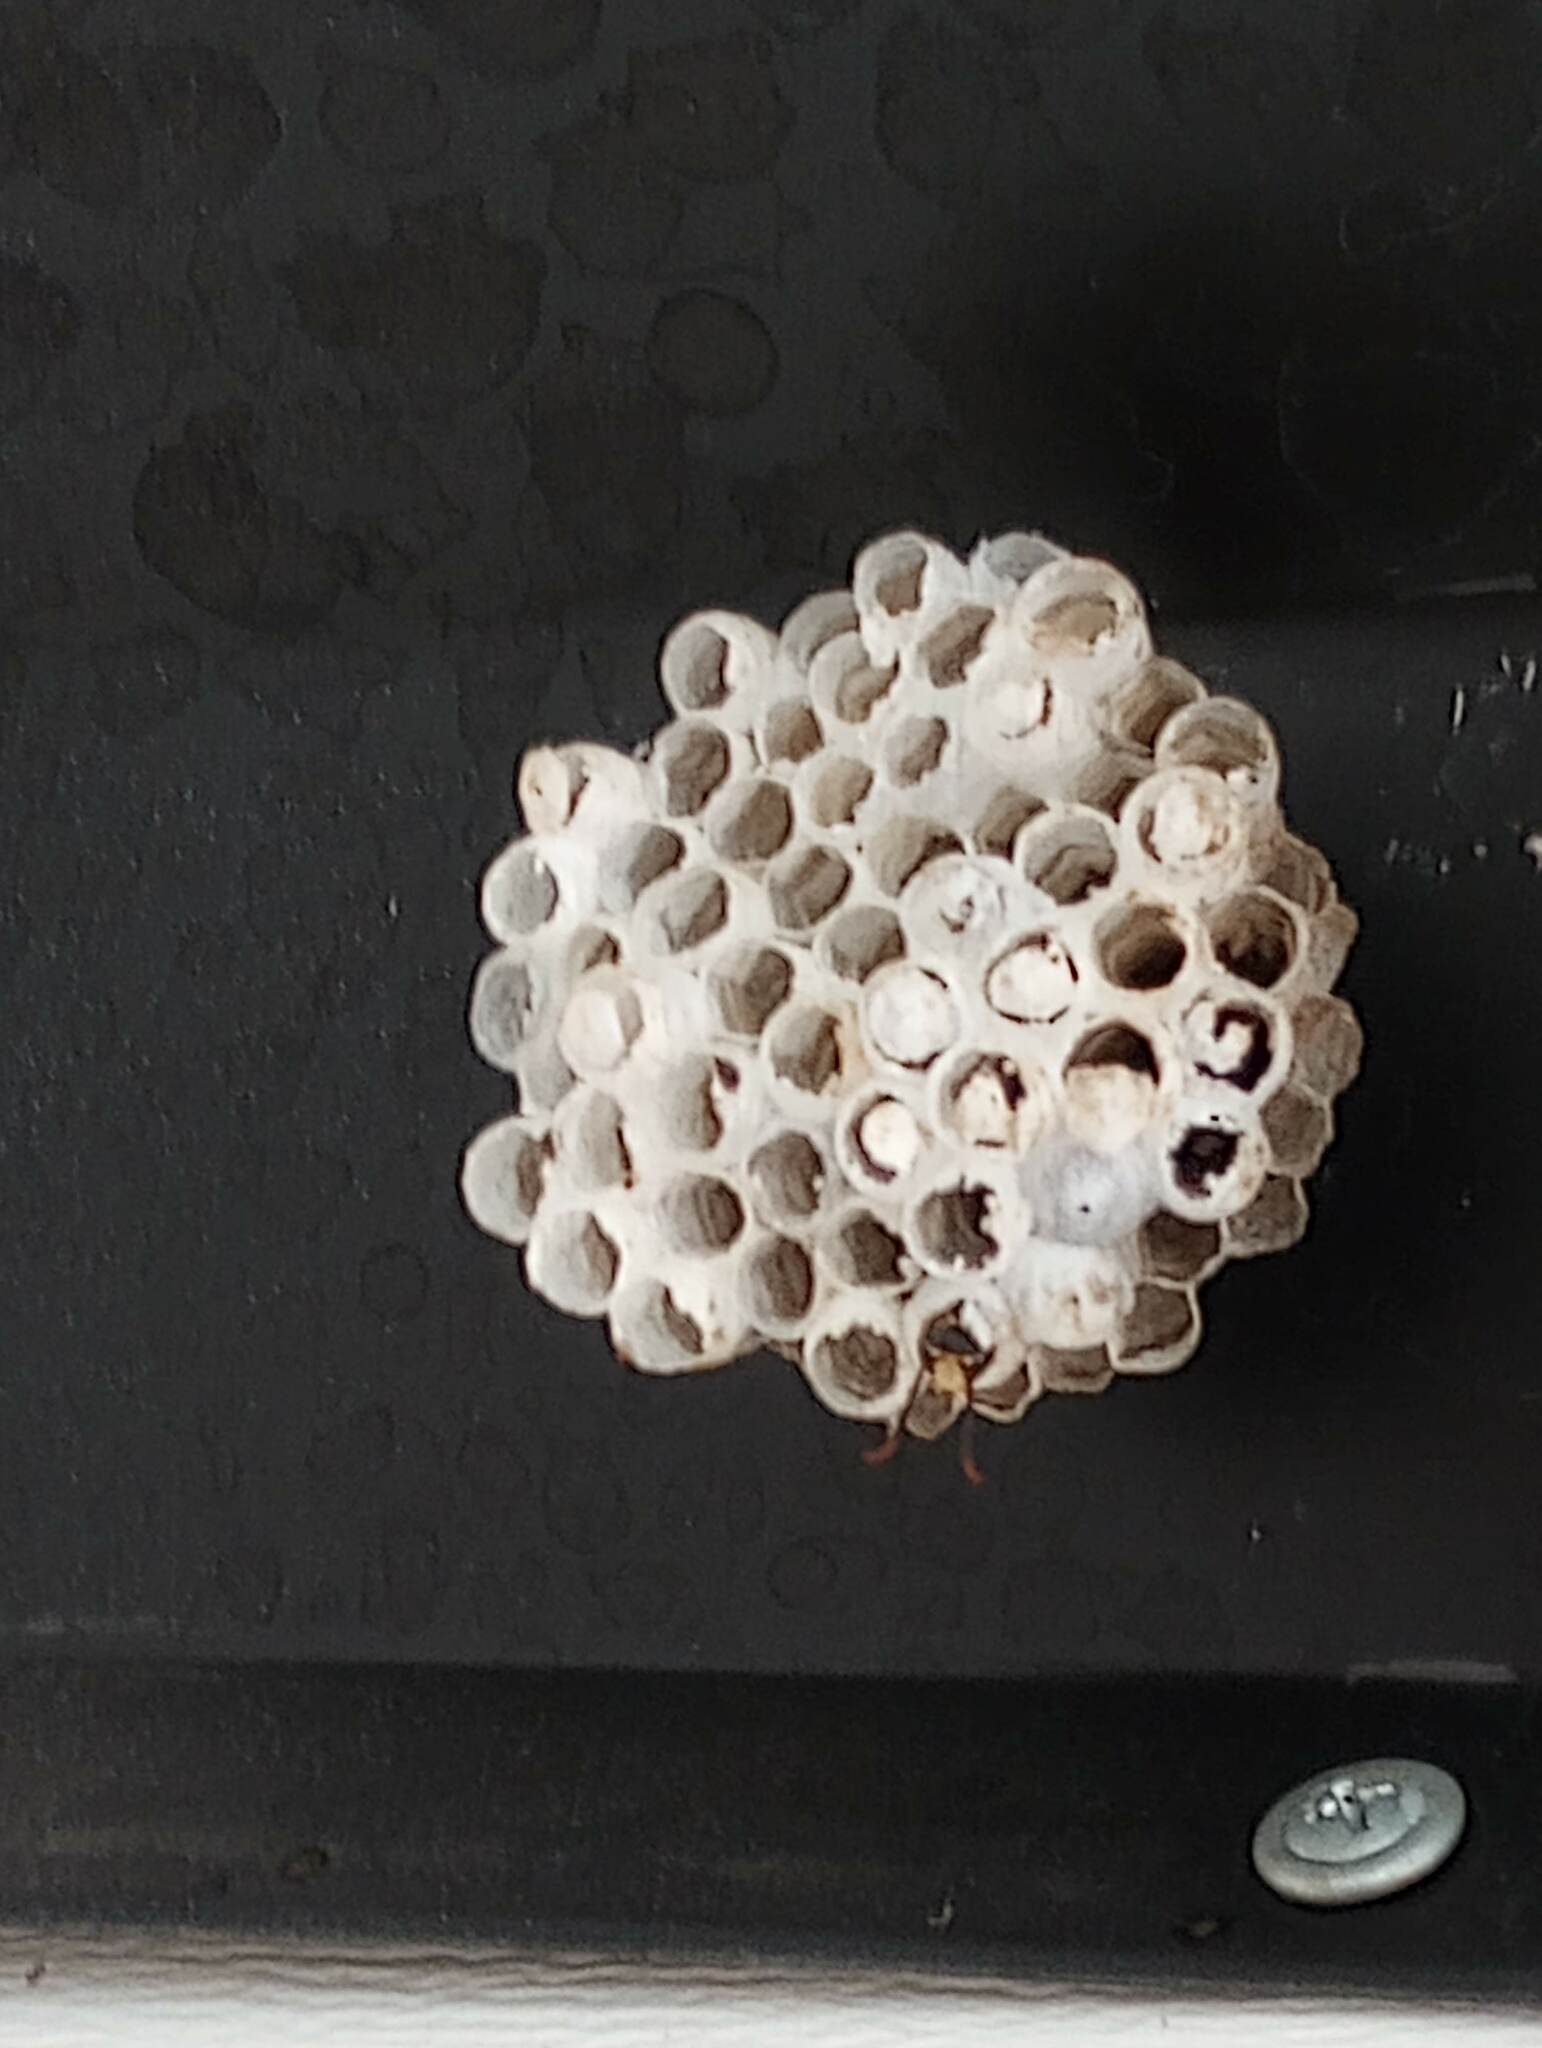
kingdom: Animalia
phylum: Arthropoda
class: Insecta
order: Hymenoptera
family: Eumenidae
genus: Polistes
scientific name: Polistes
